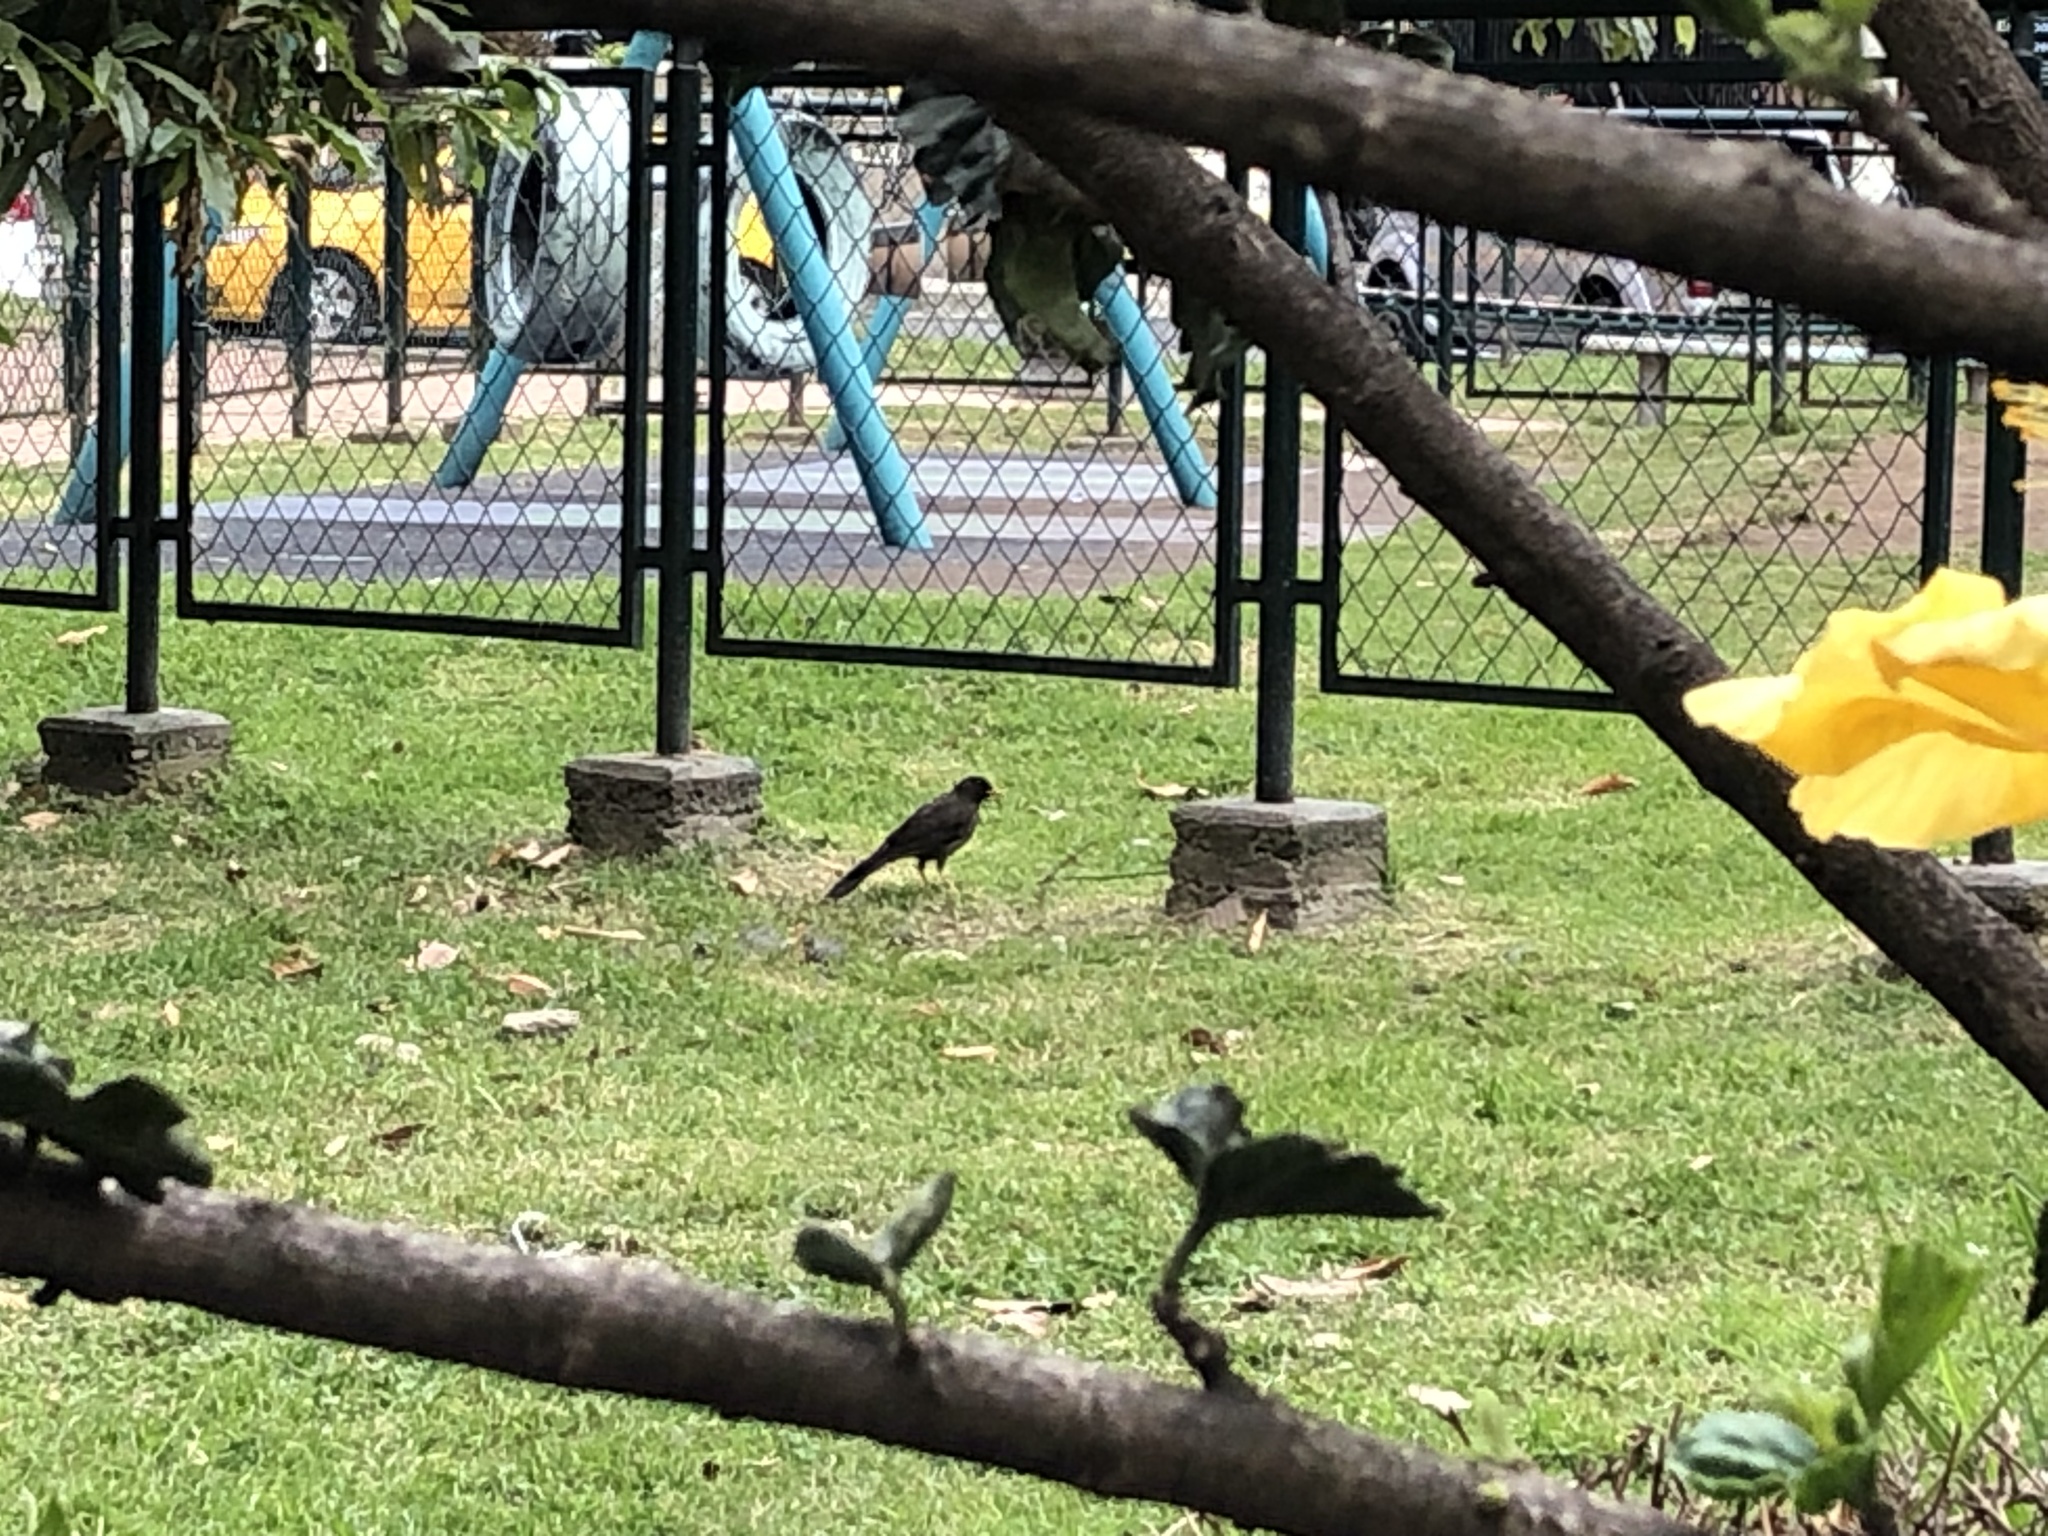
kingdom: Animalia
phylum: Chordata
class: Aves
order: Passeriformes
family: Turdidae
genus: Turdus
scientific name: Turdus fuscater
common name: Great thrush
